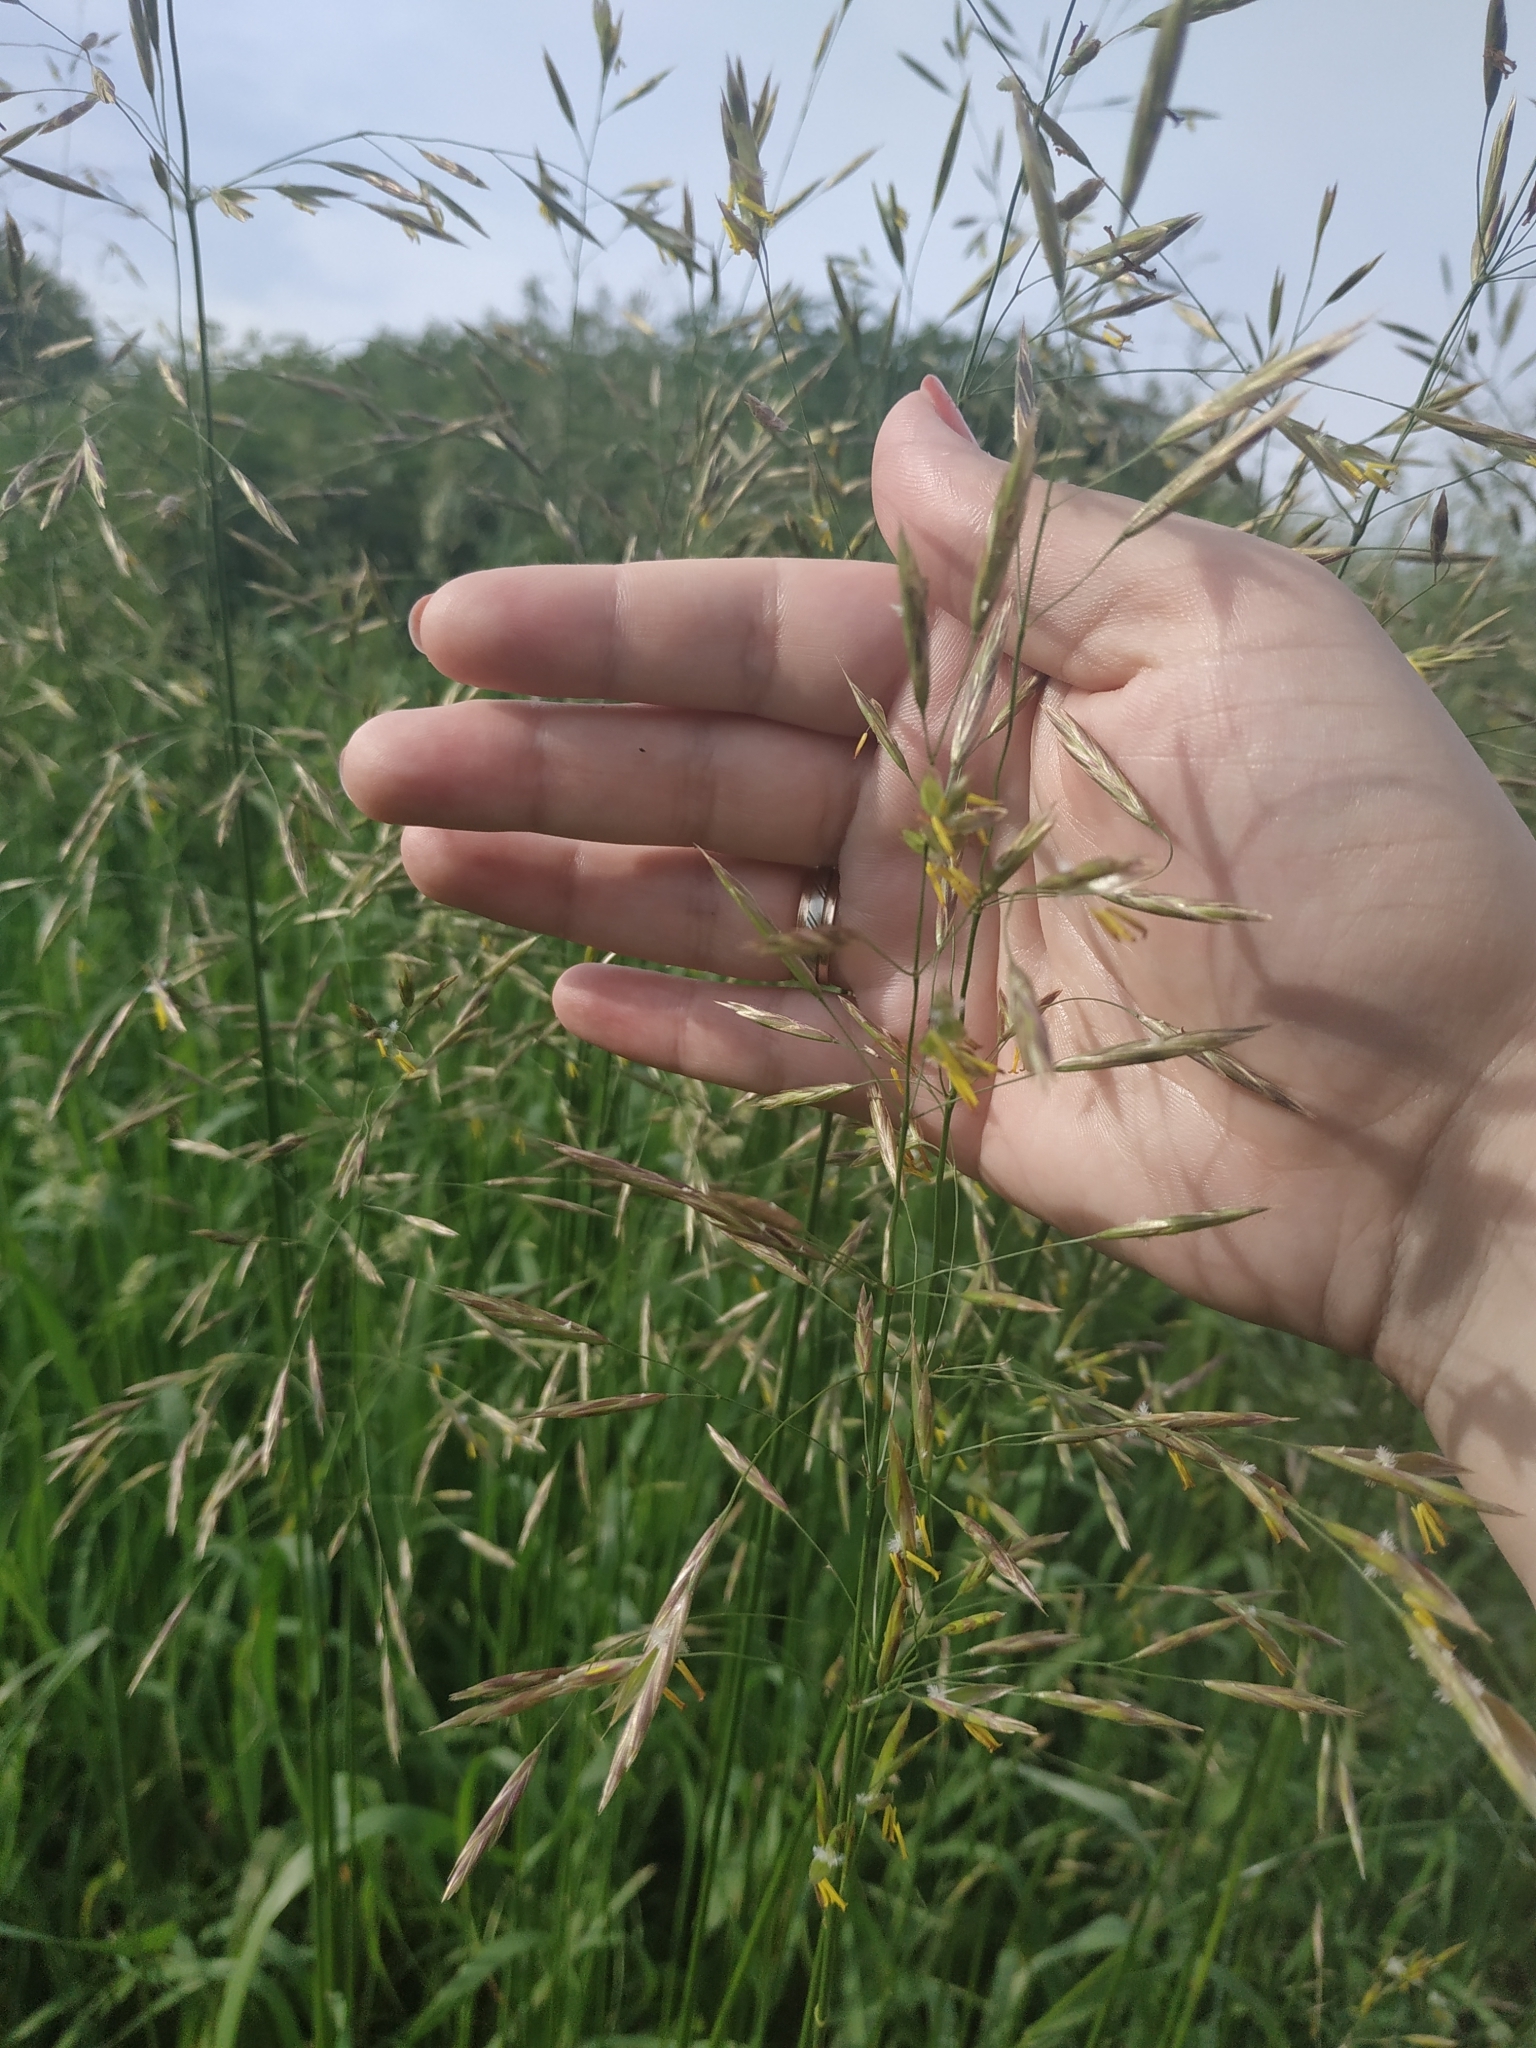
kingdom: Plantae
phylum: Tracheophyta
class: Liliopsida
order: Poales
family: Poaceae
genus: Bromus
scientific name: Bromus inermis
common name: Smooth brome
